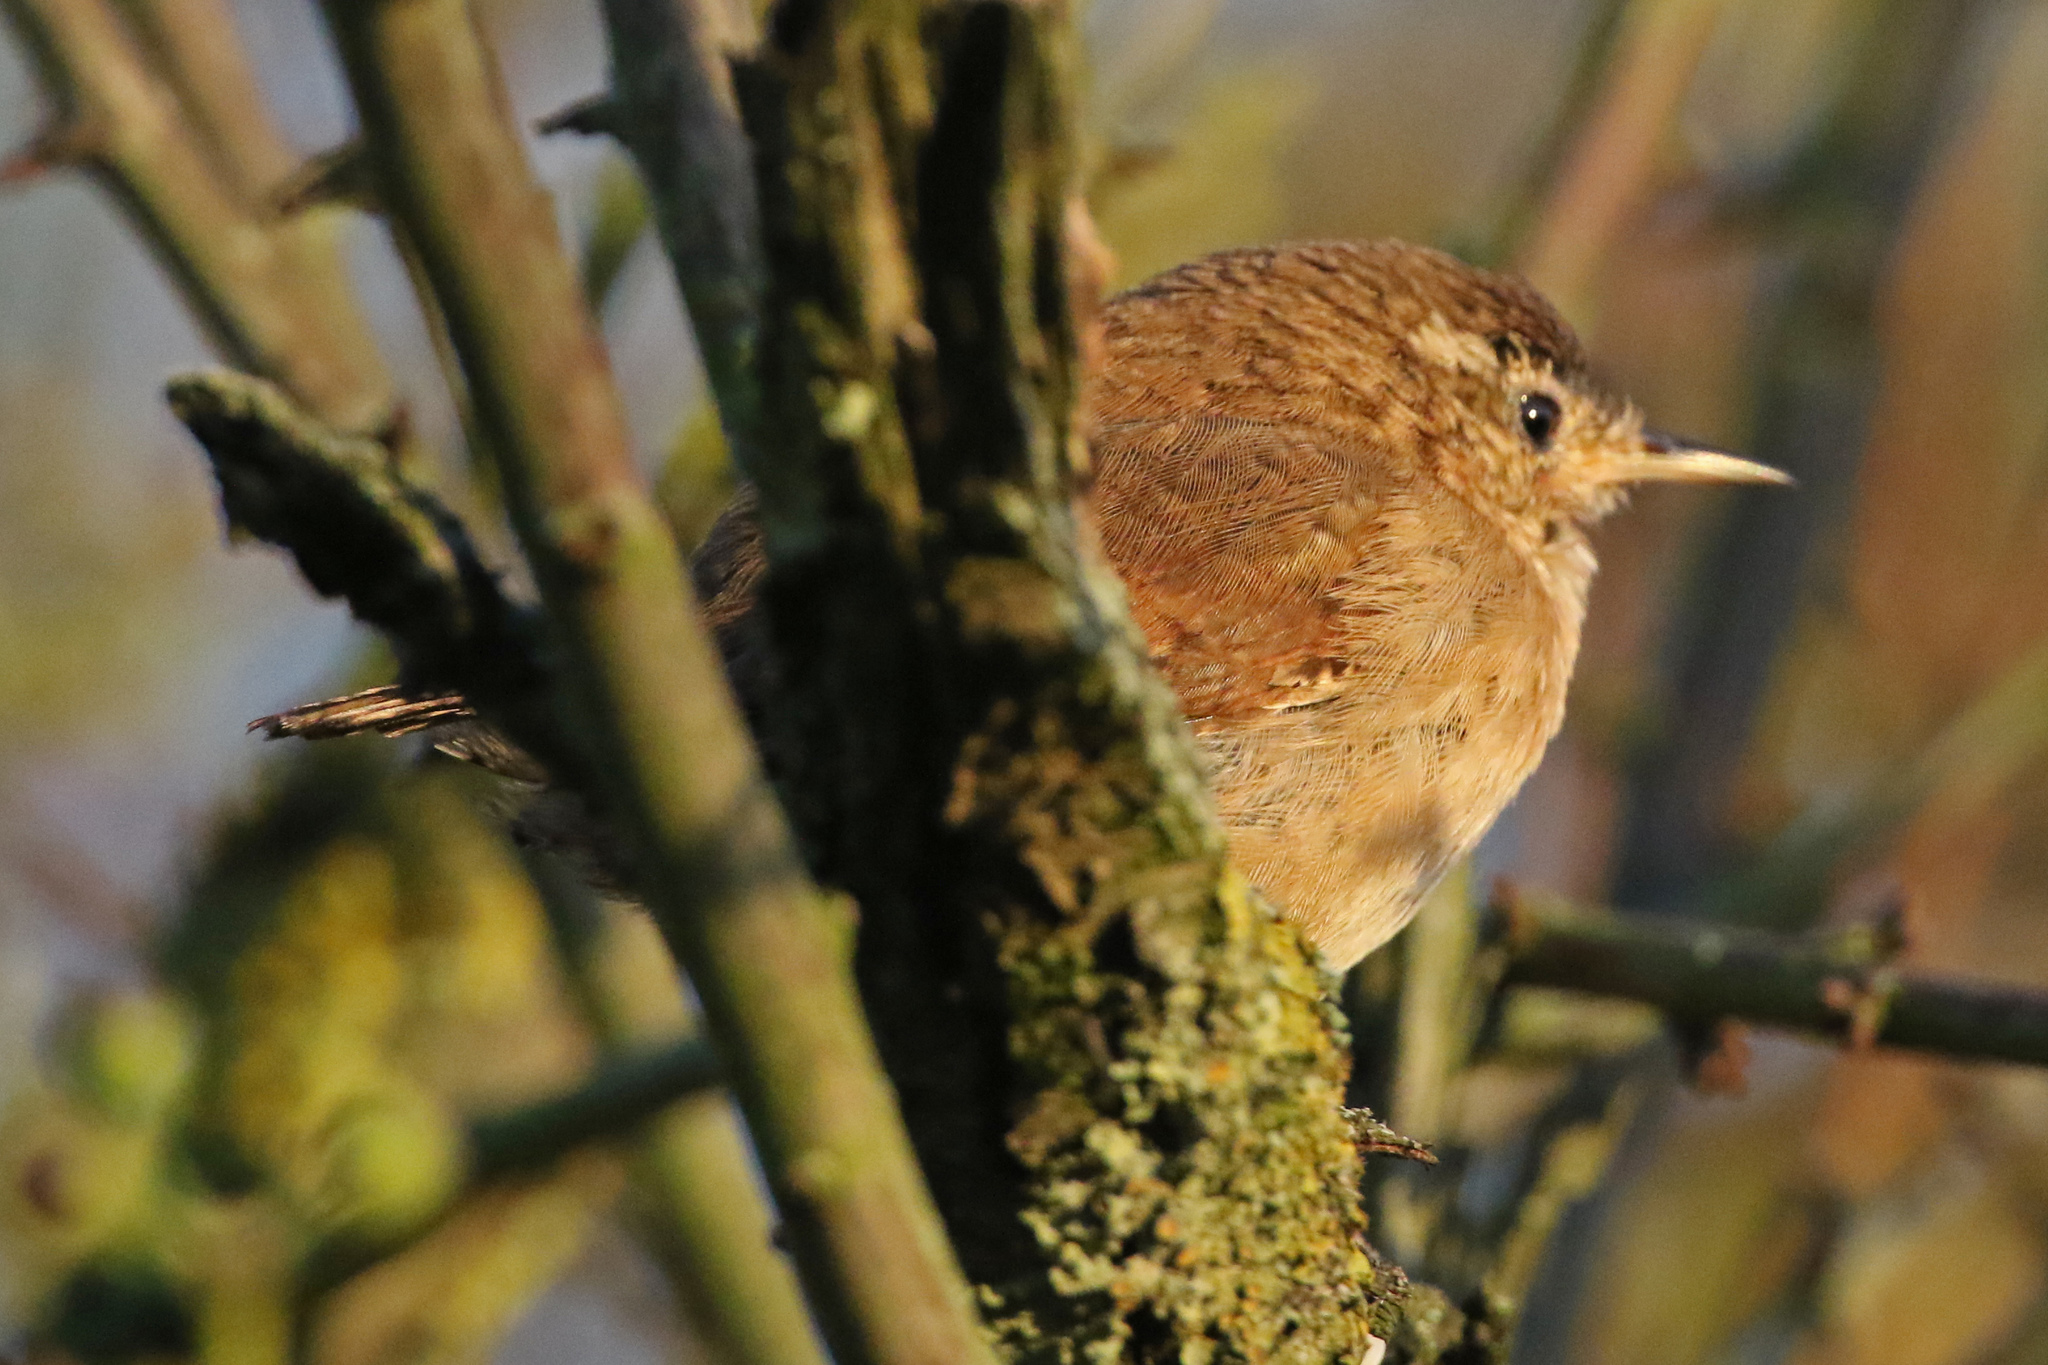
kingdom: Animalia
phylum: Chordata
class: Aves
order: Passeriformes
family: Troglodytidae
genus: Troglodytes
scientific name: Troglodytes troglodytes
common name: Eurasian wren
